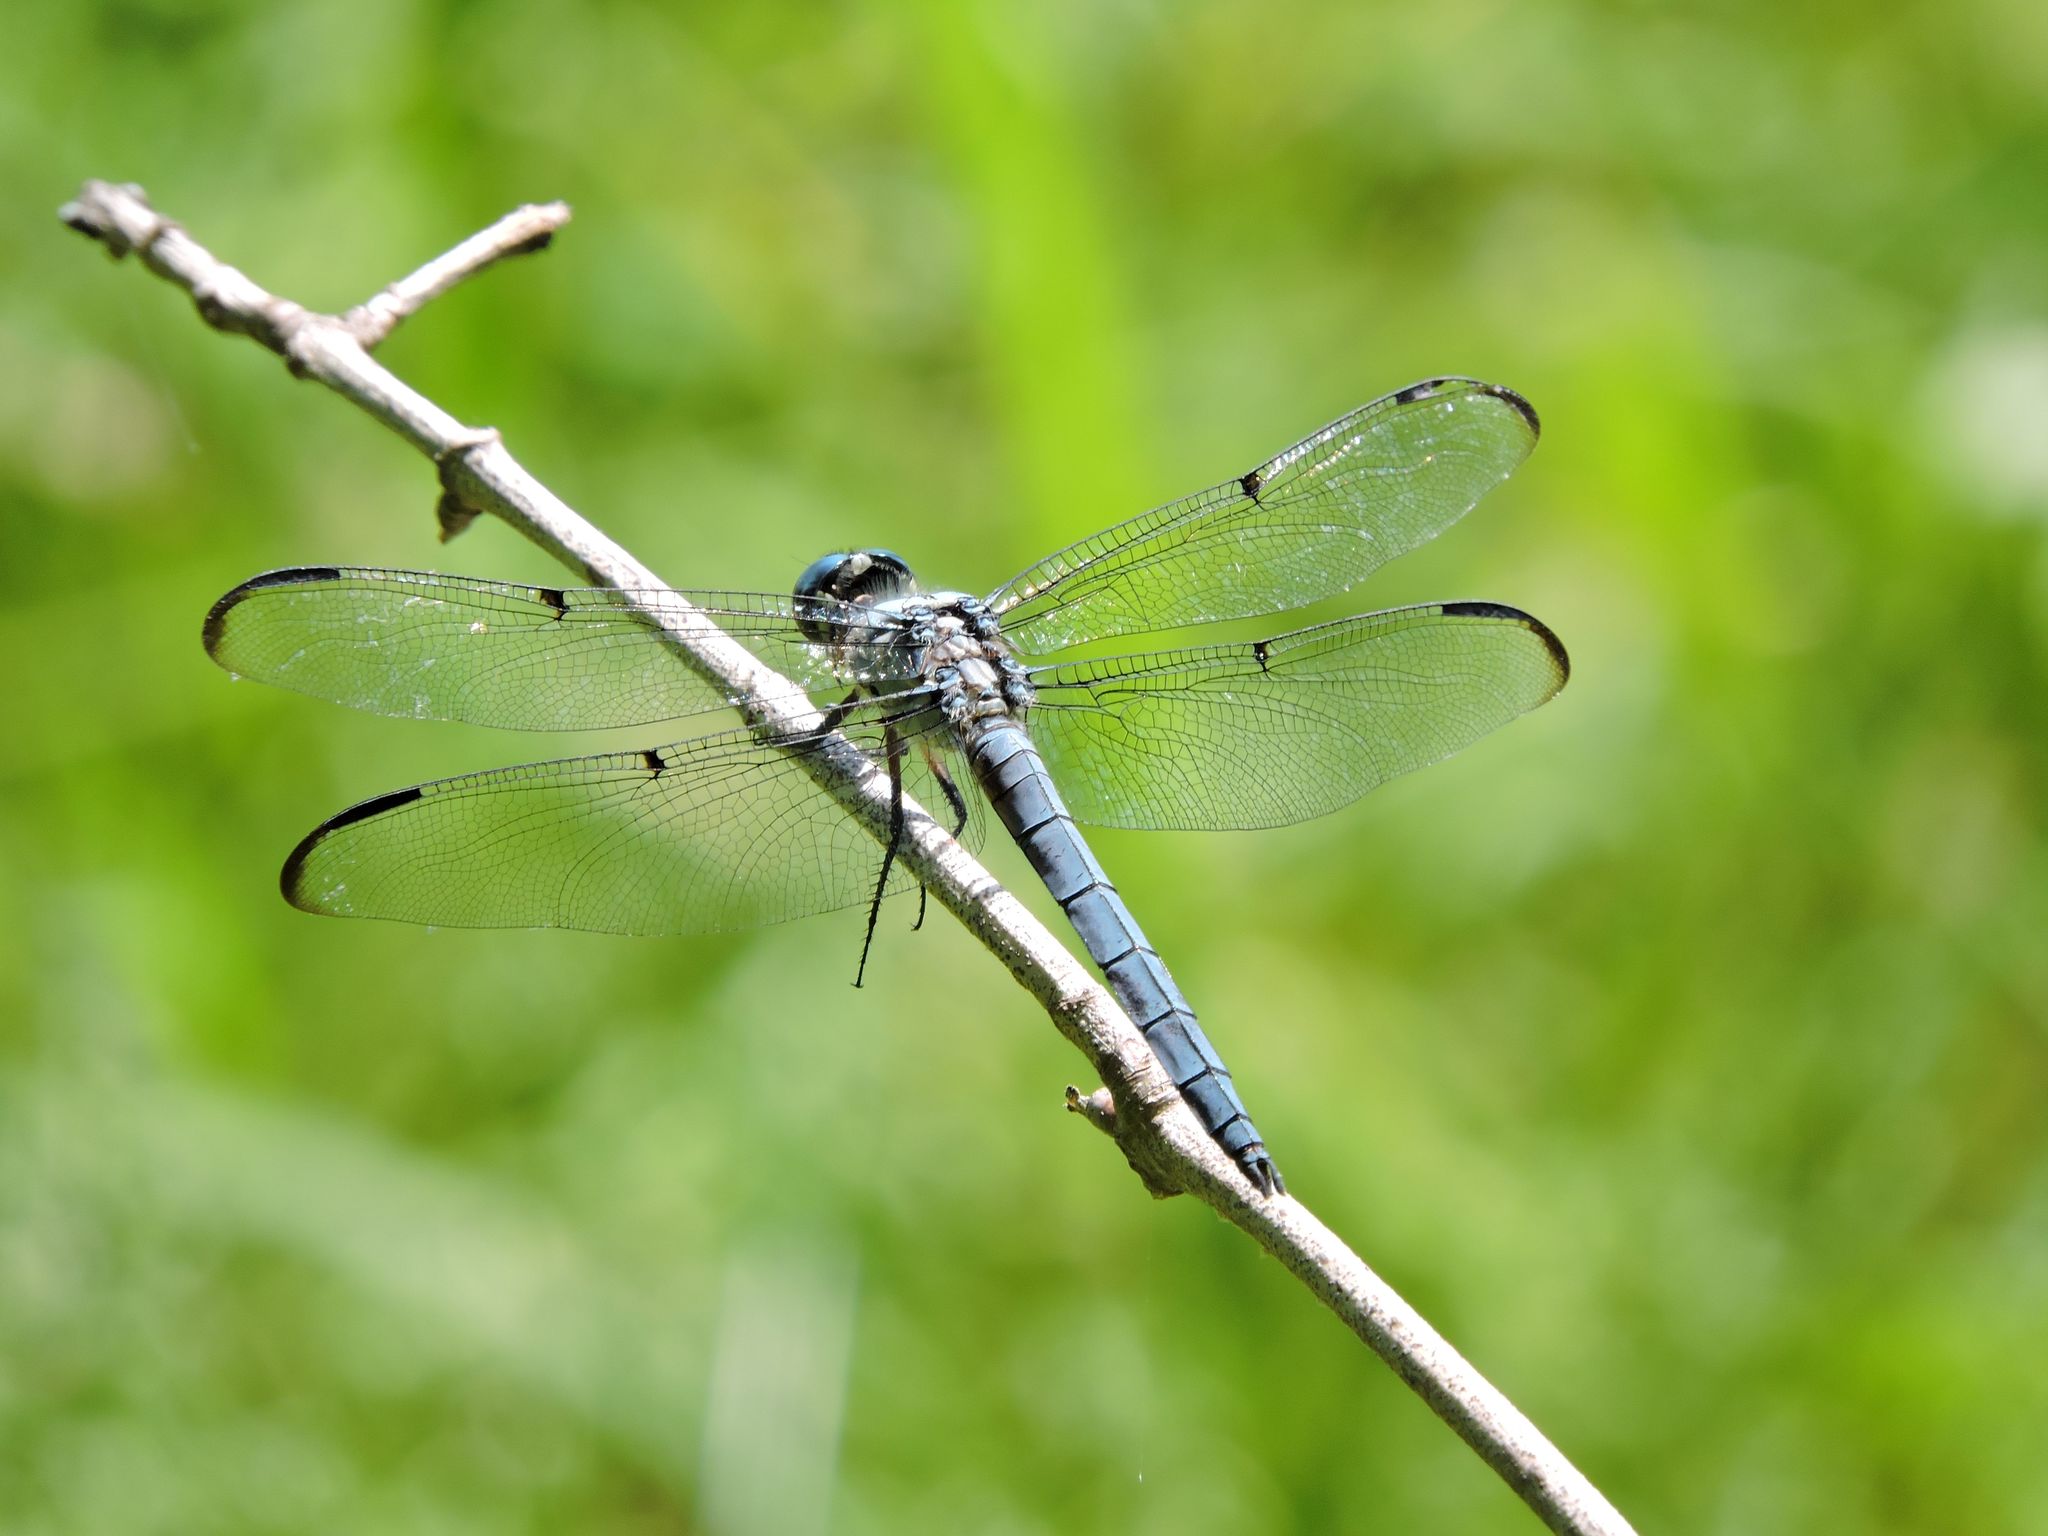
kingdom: Animalia
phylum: Arthropoda
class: Insecta
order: Odonata
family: Libellulidae
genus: Libellula
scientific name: Libellula vibrans
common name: Great blue skimmer
